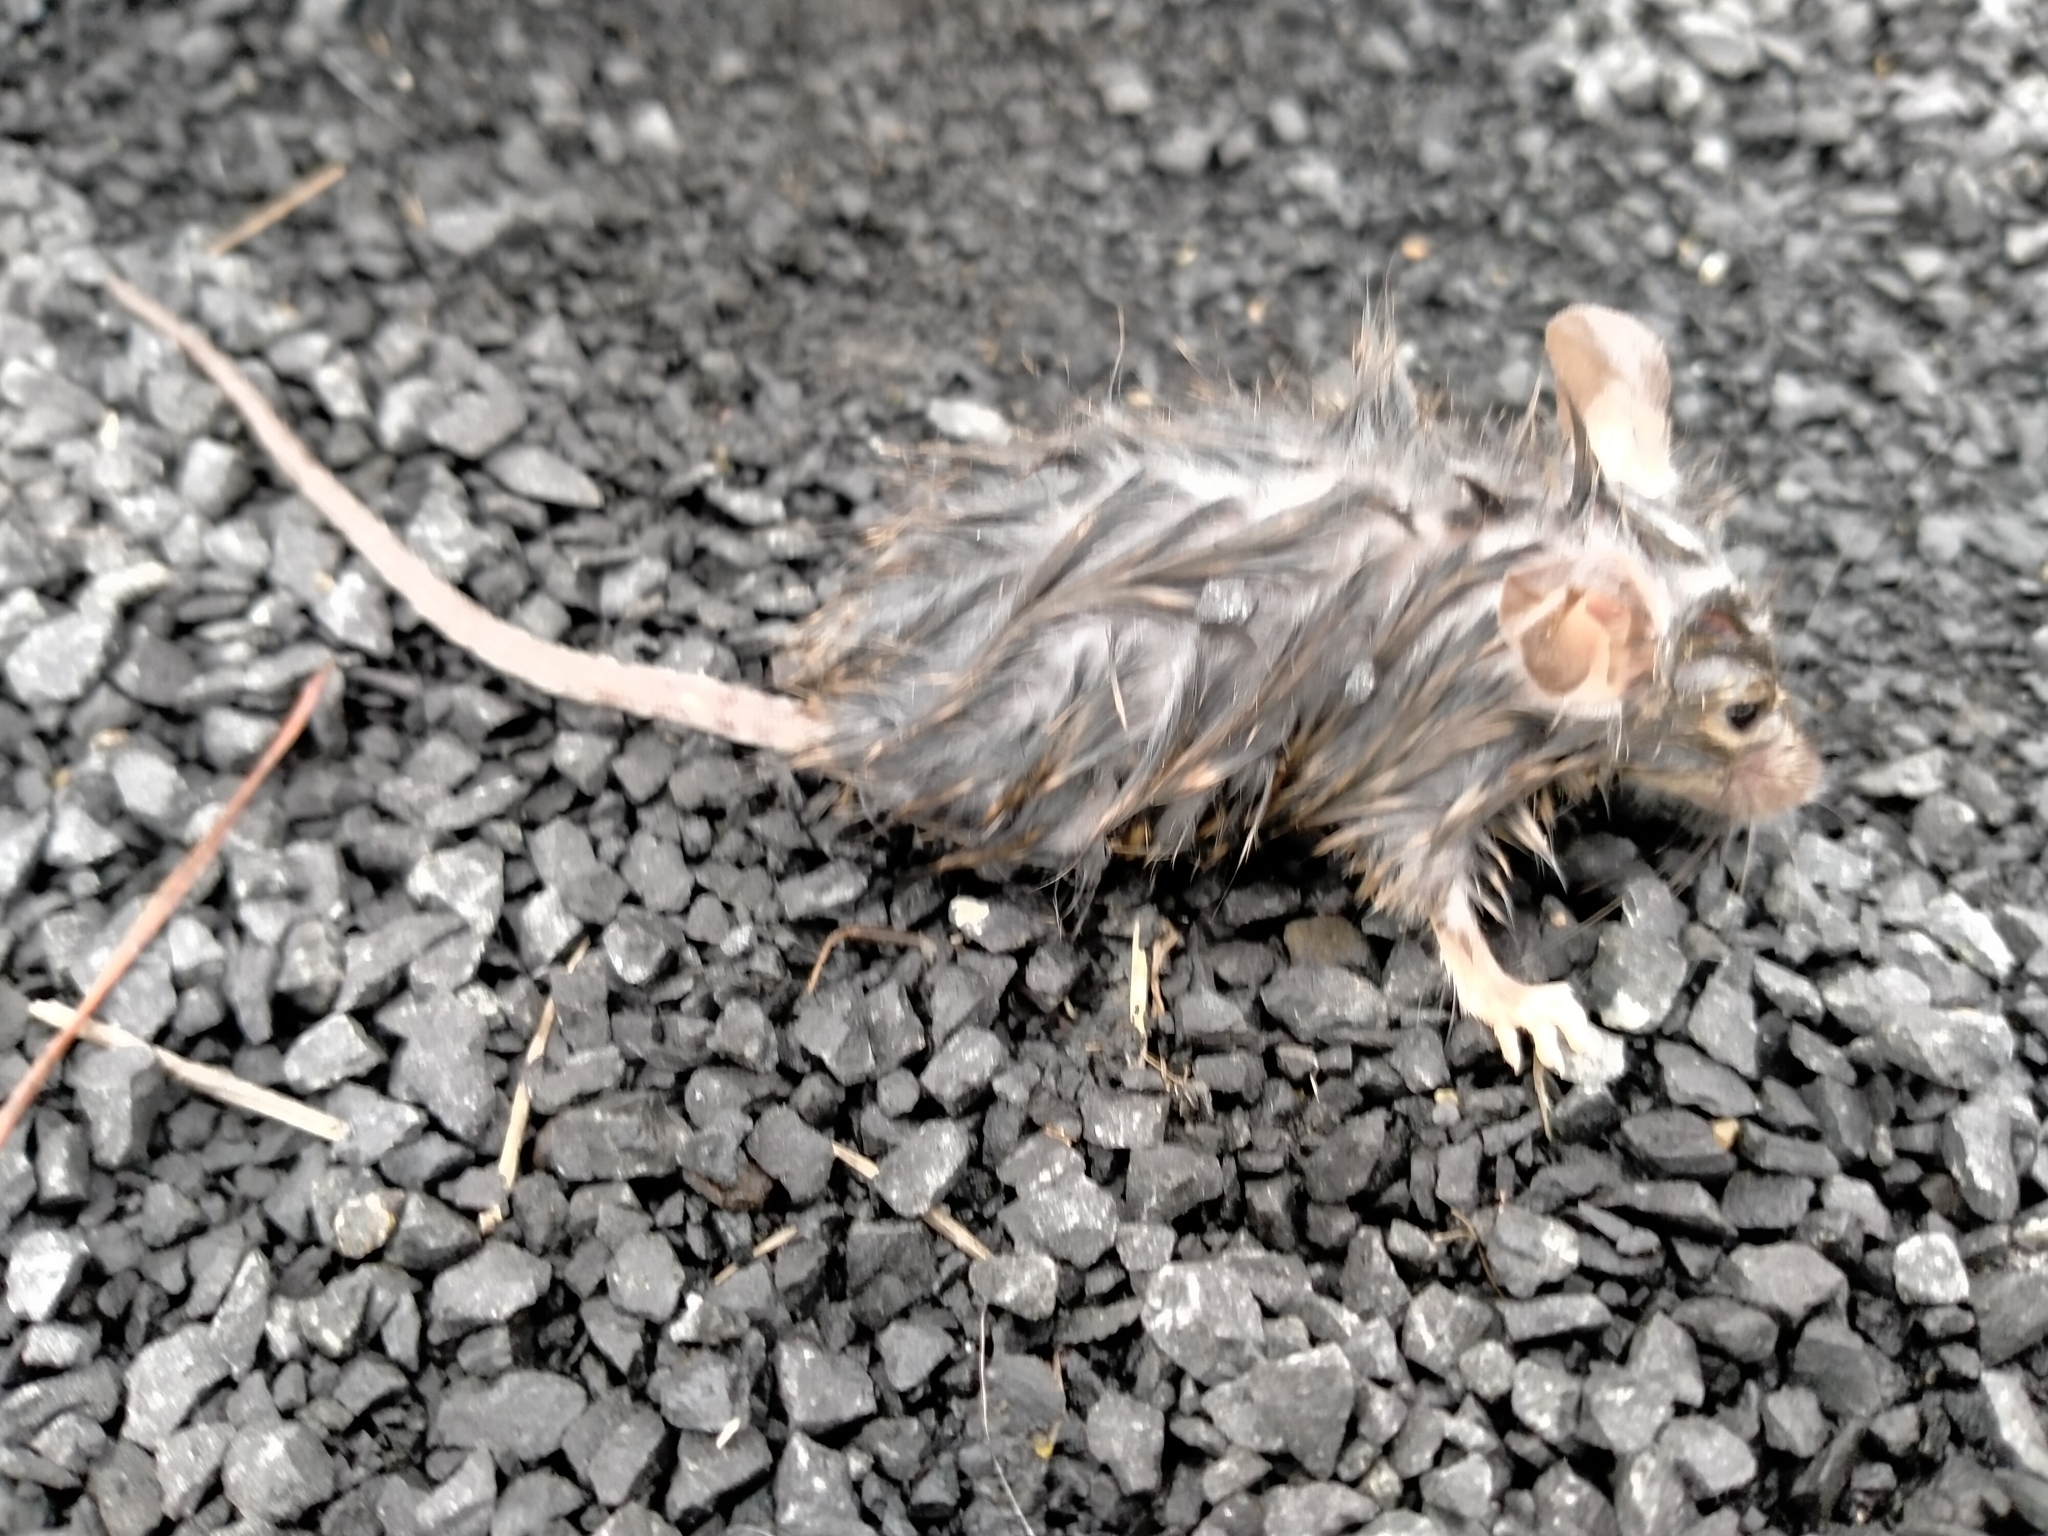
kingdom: Animalia
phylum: Chordata
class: Mammalia
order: Rodentia
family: Muridae
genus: Mus
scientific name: Mus musculus
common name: House mouse
